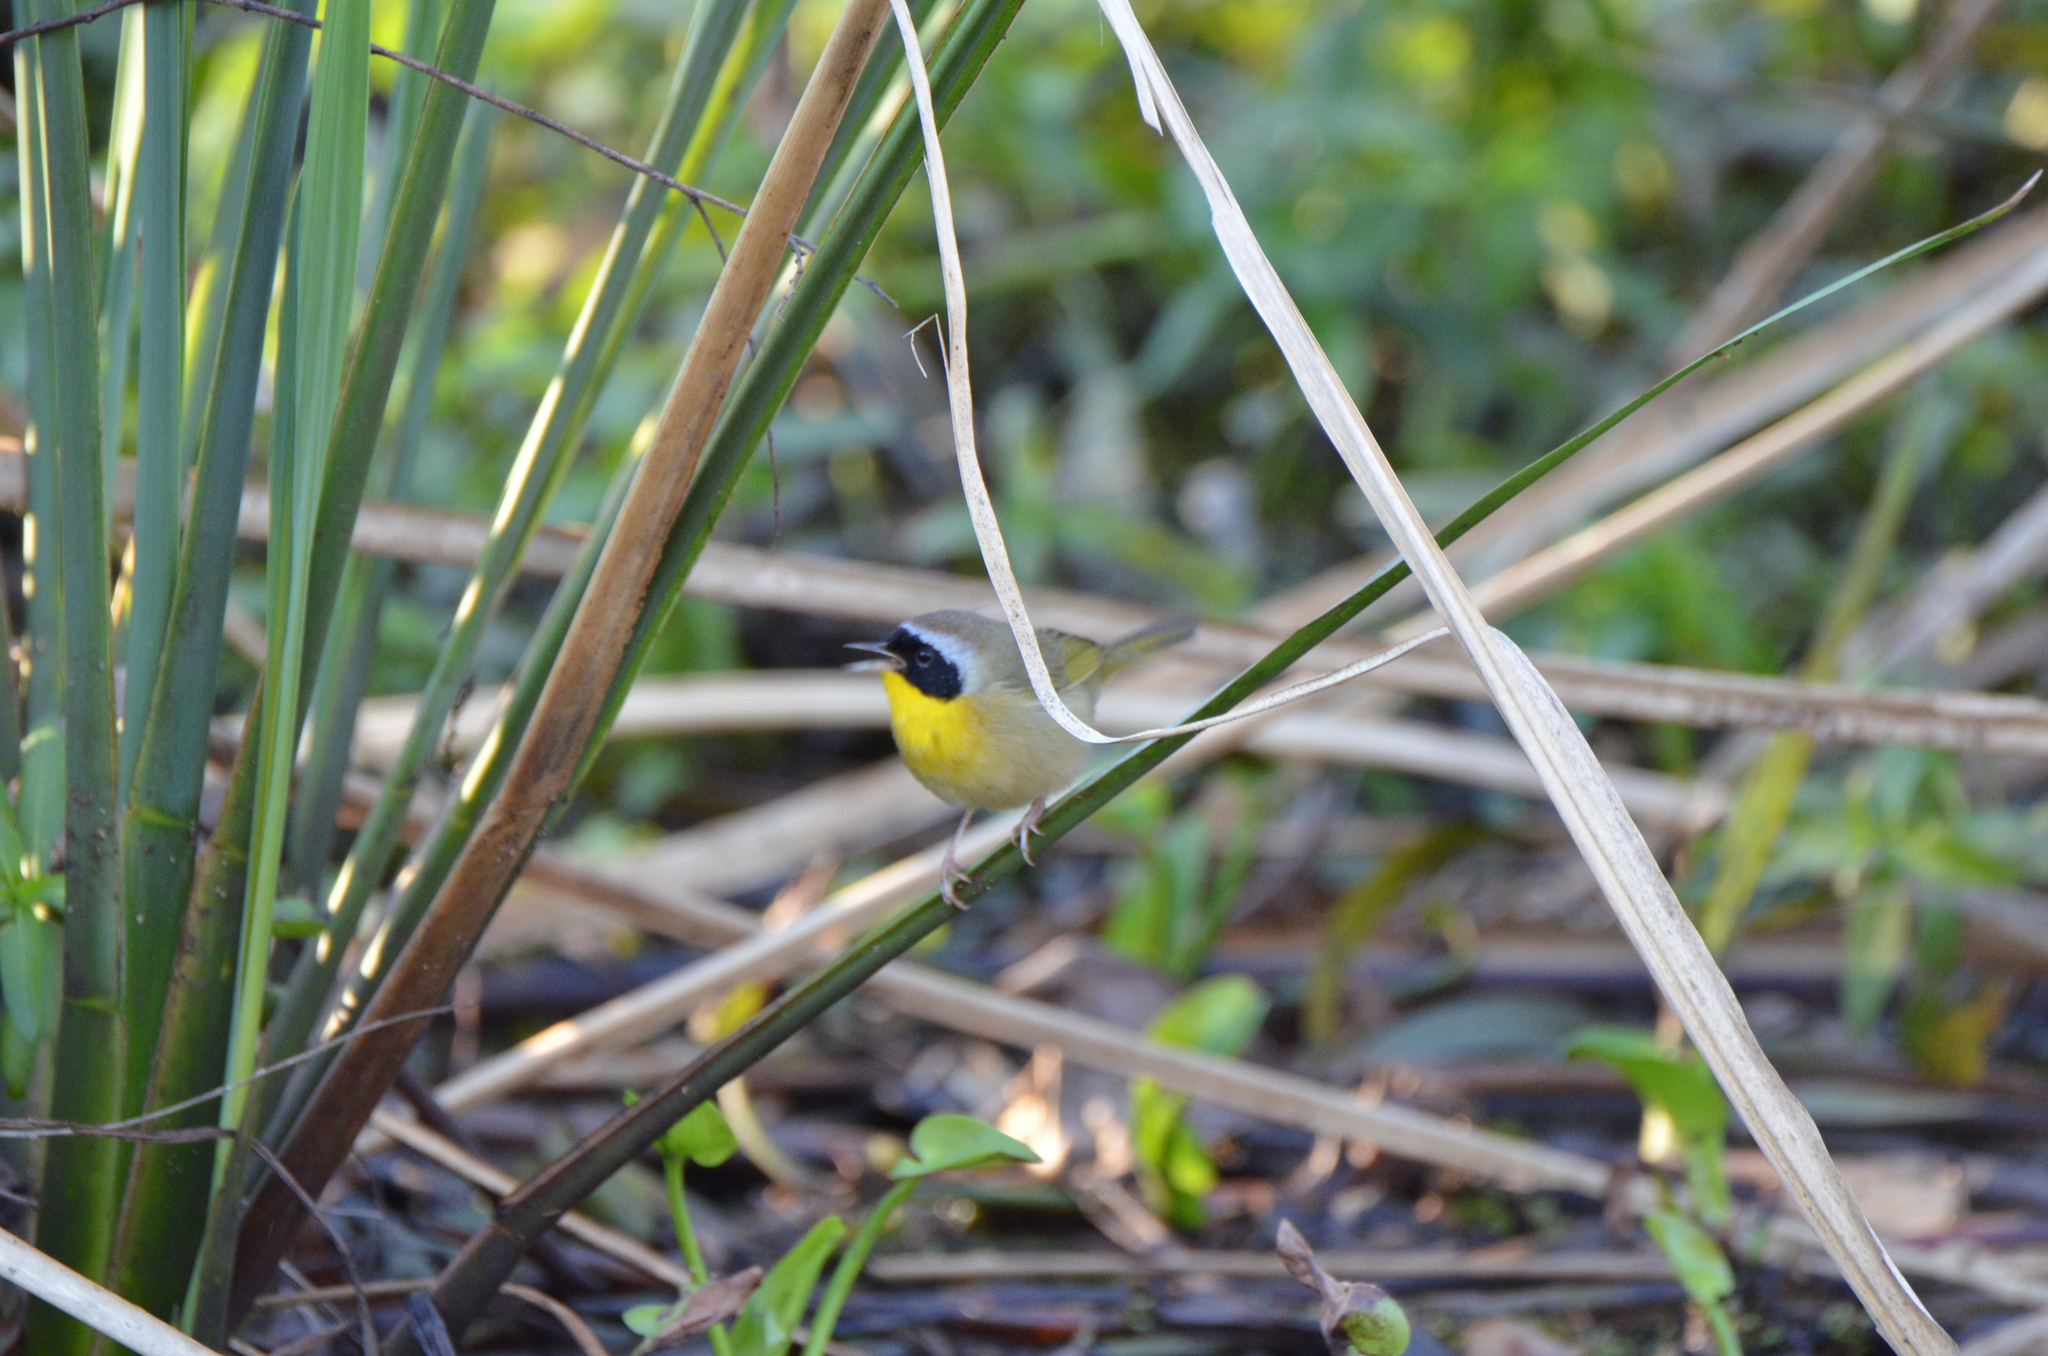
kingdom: Animalia
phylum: Chordata
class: Aves
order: Passeriformes
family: Parulidae
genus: Geothlypis
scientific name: Geothlypis trichas
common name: Common yellowthroat
